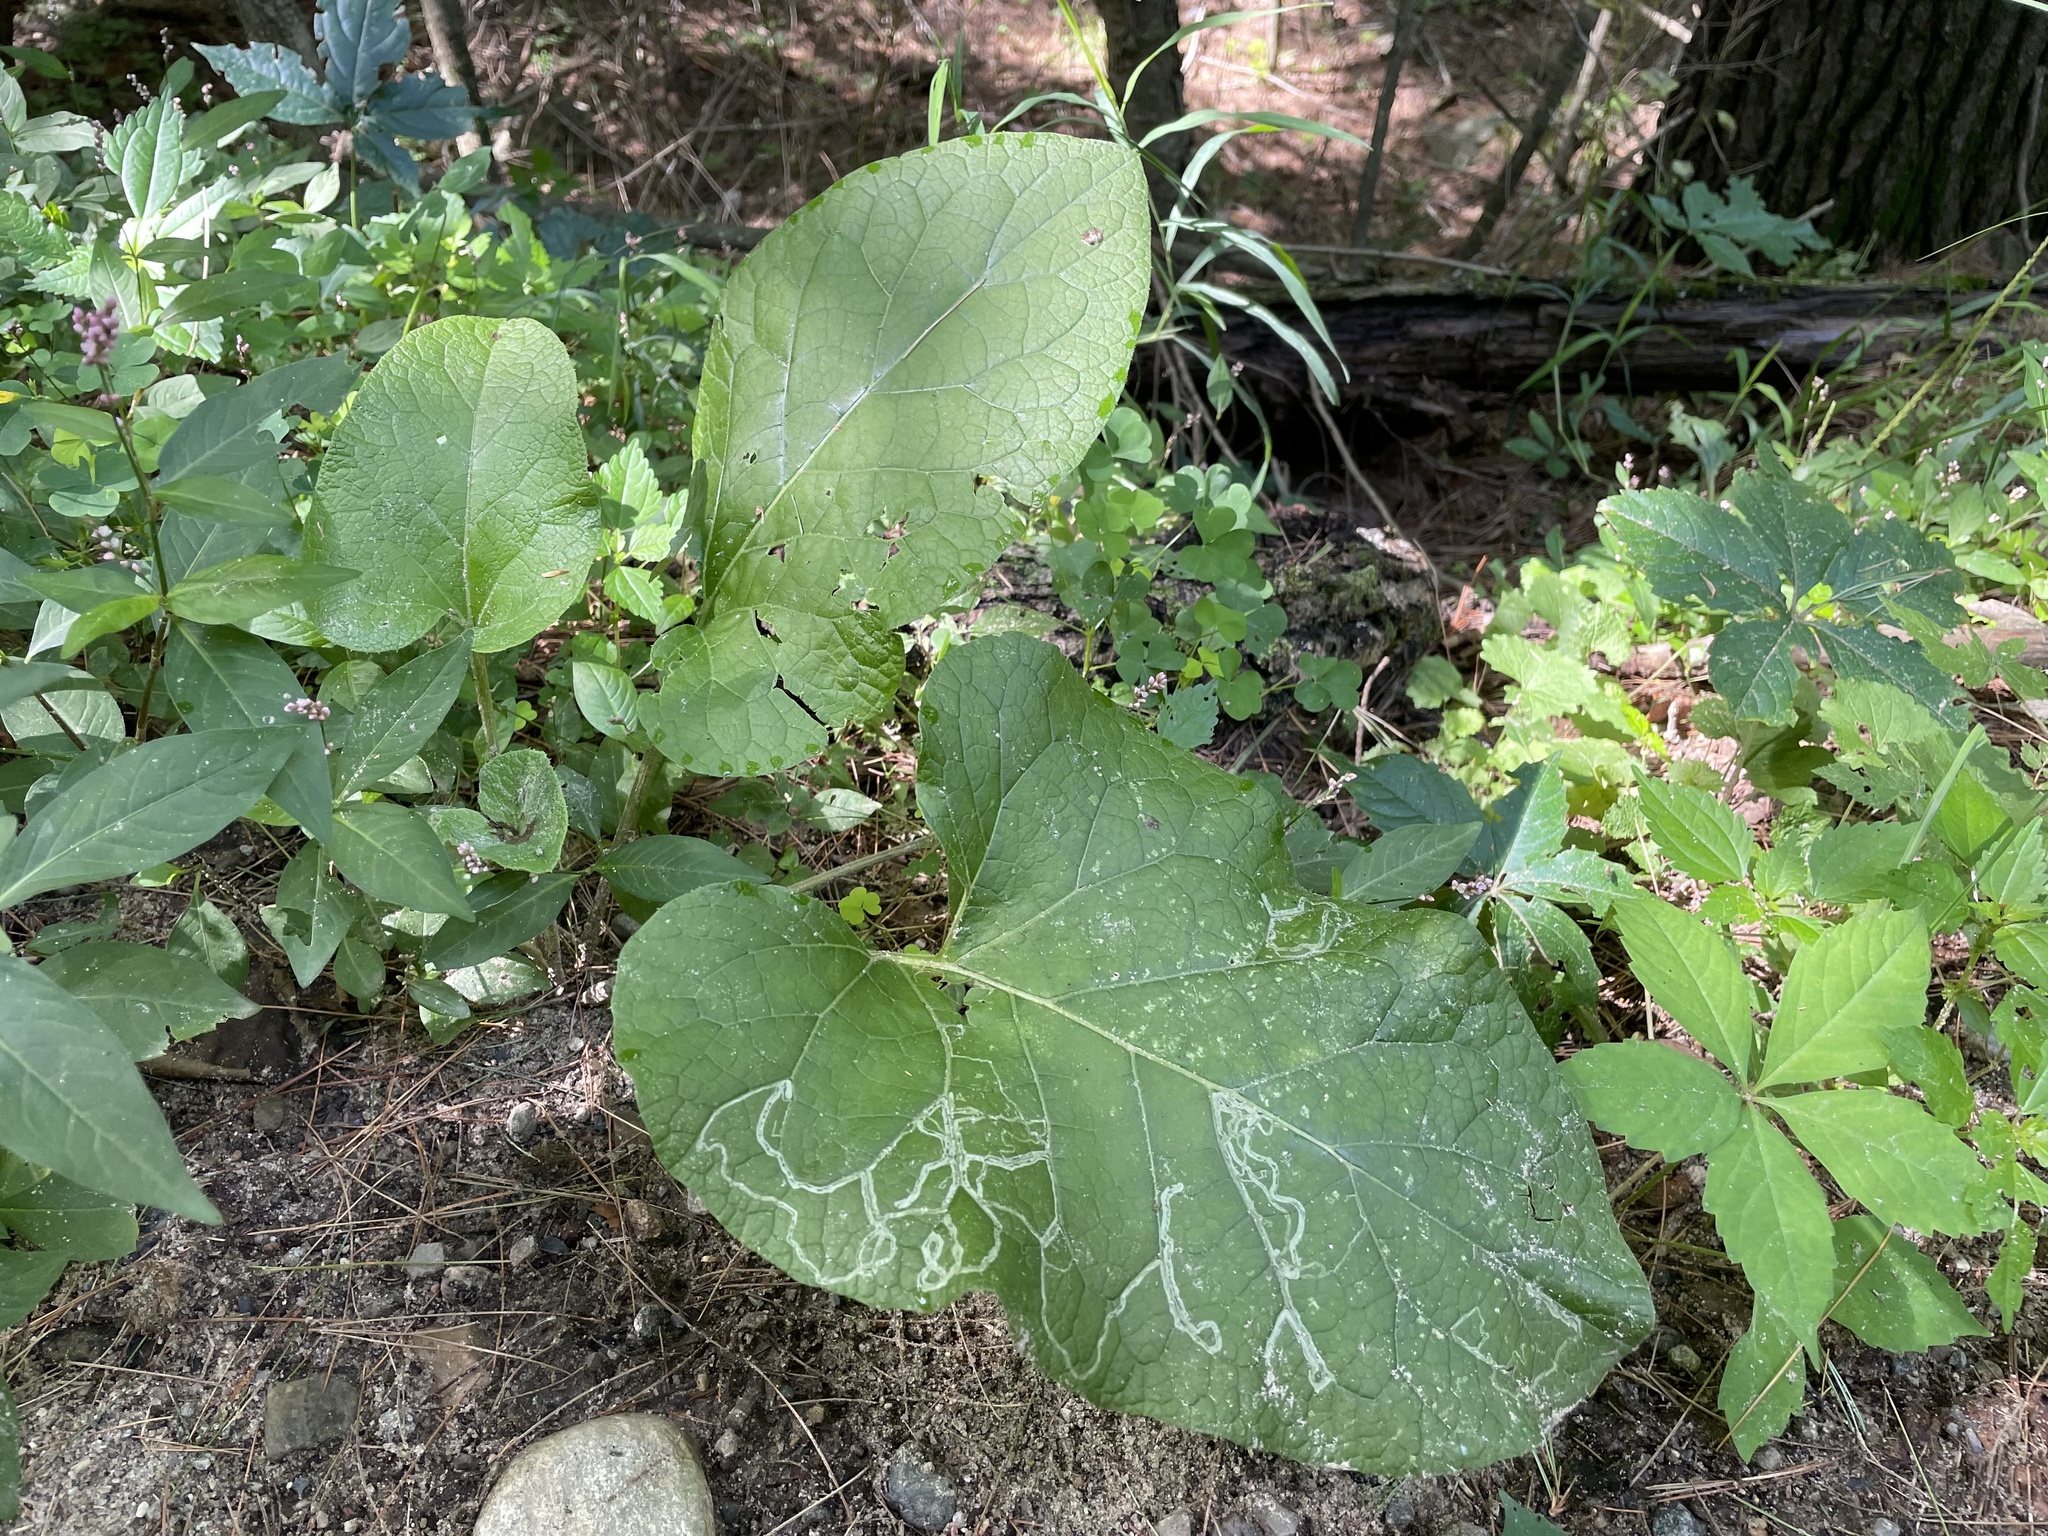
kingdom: Plantae
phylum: Tracheophyta
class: Magnoliopsida
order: Asterales
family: Asteraceae
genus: Arctium
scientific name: Arctium
